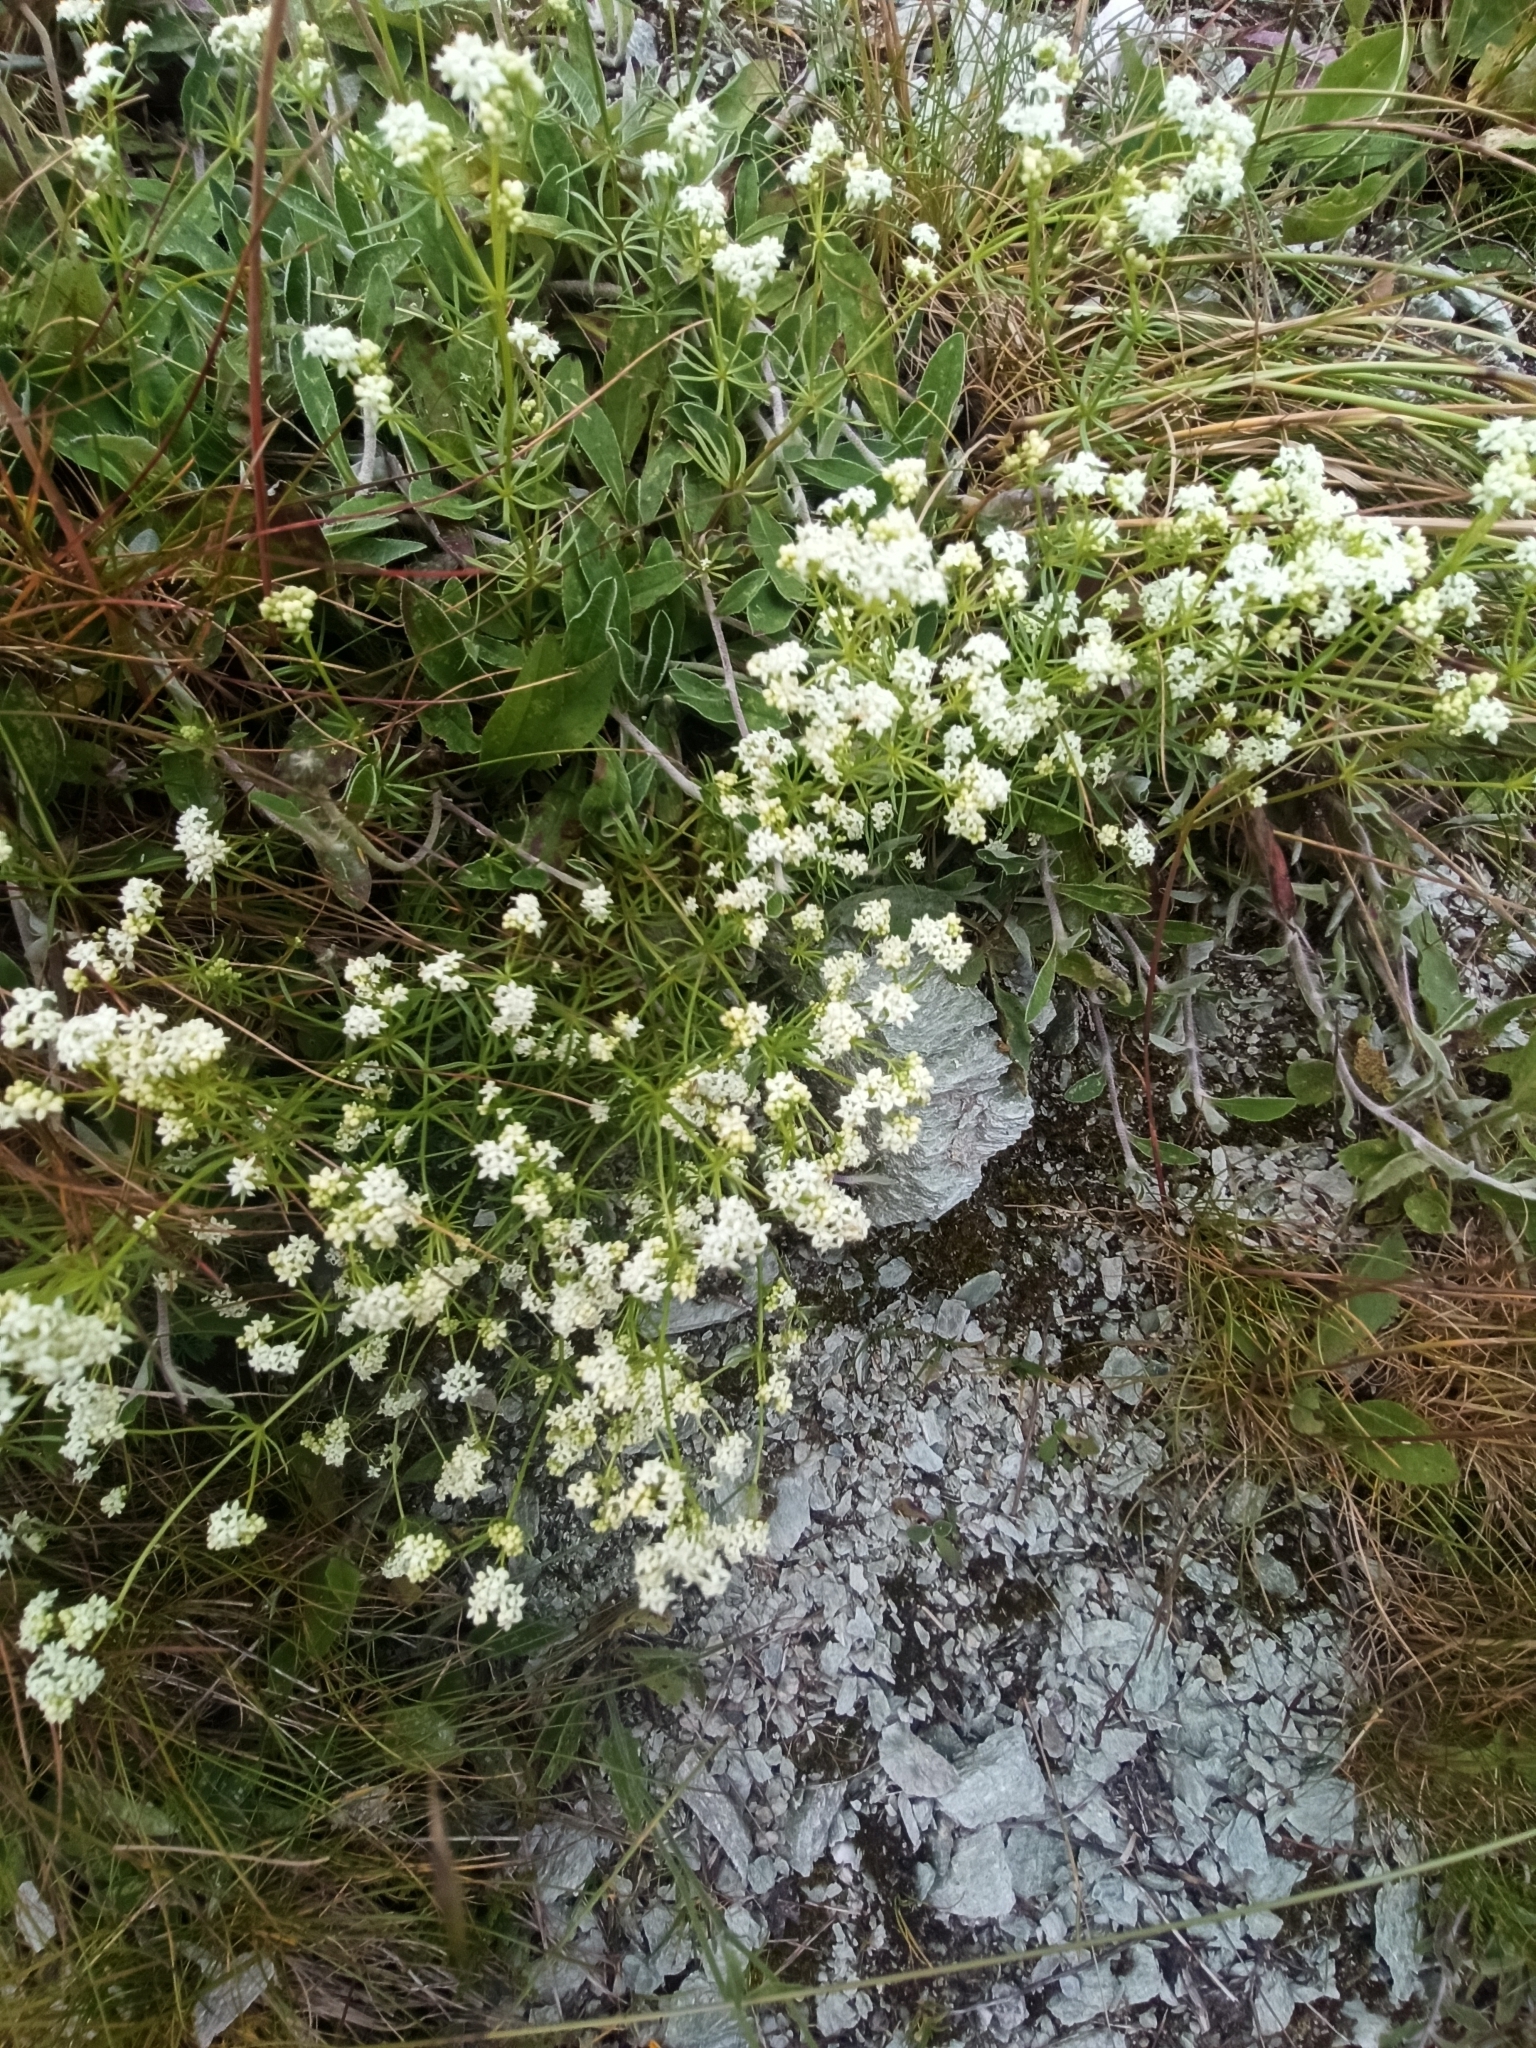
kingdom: Plantae
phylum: Tracheophyta
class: Magnoliopsida
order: Gentianales
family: Rubiaceae
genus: Galium
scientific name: Galium anisophyllon
